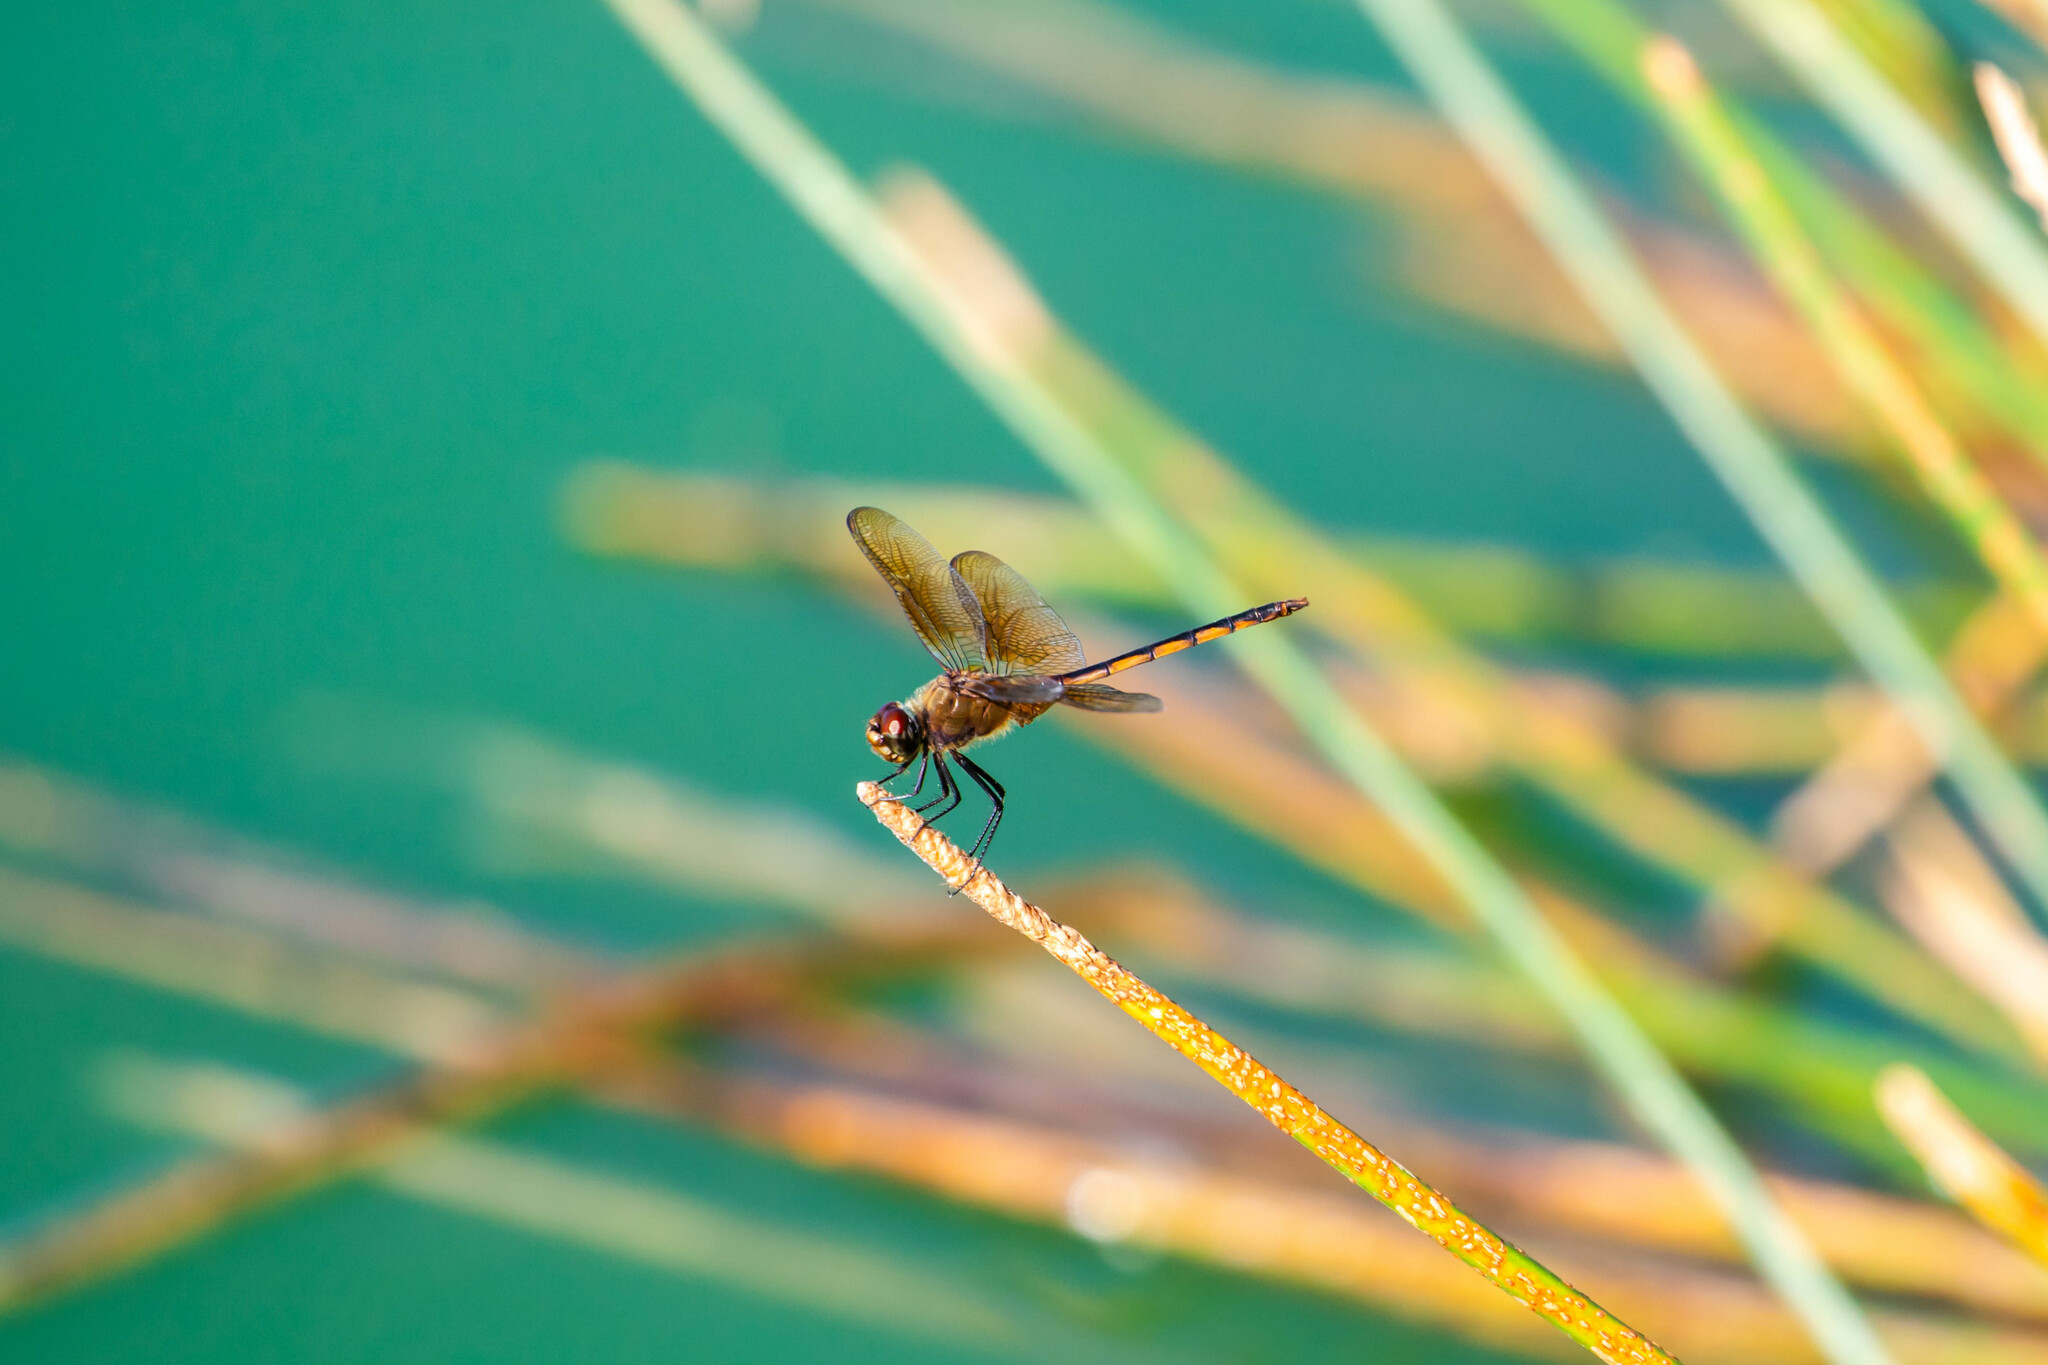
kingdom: Animalia
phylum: Arthropoda
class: Insecta
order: Odonata
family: Libellulidae
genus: Brachymesia
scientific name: Brachymesia herbida
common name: Tawny pennant
